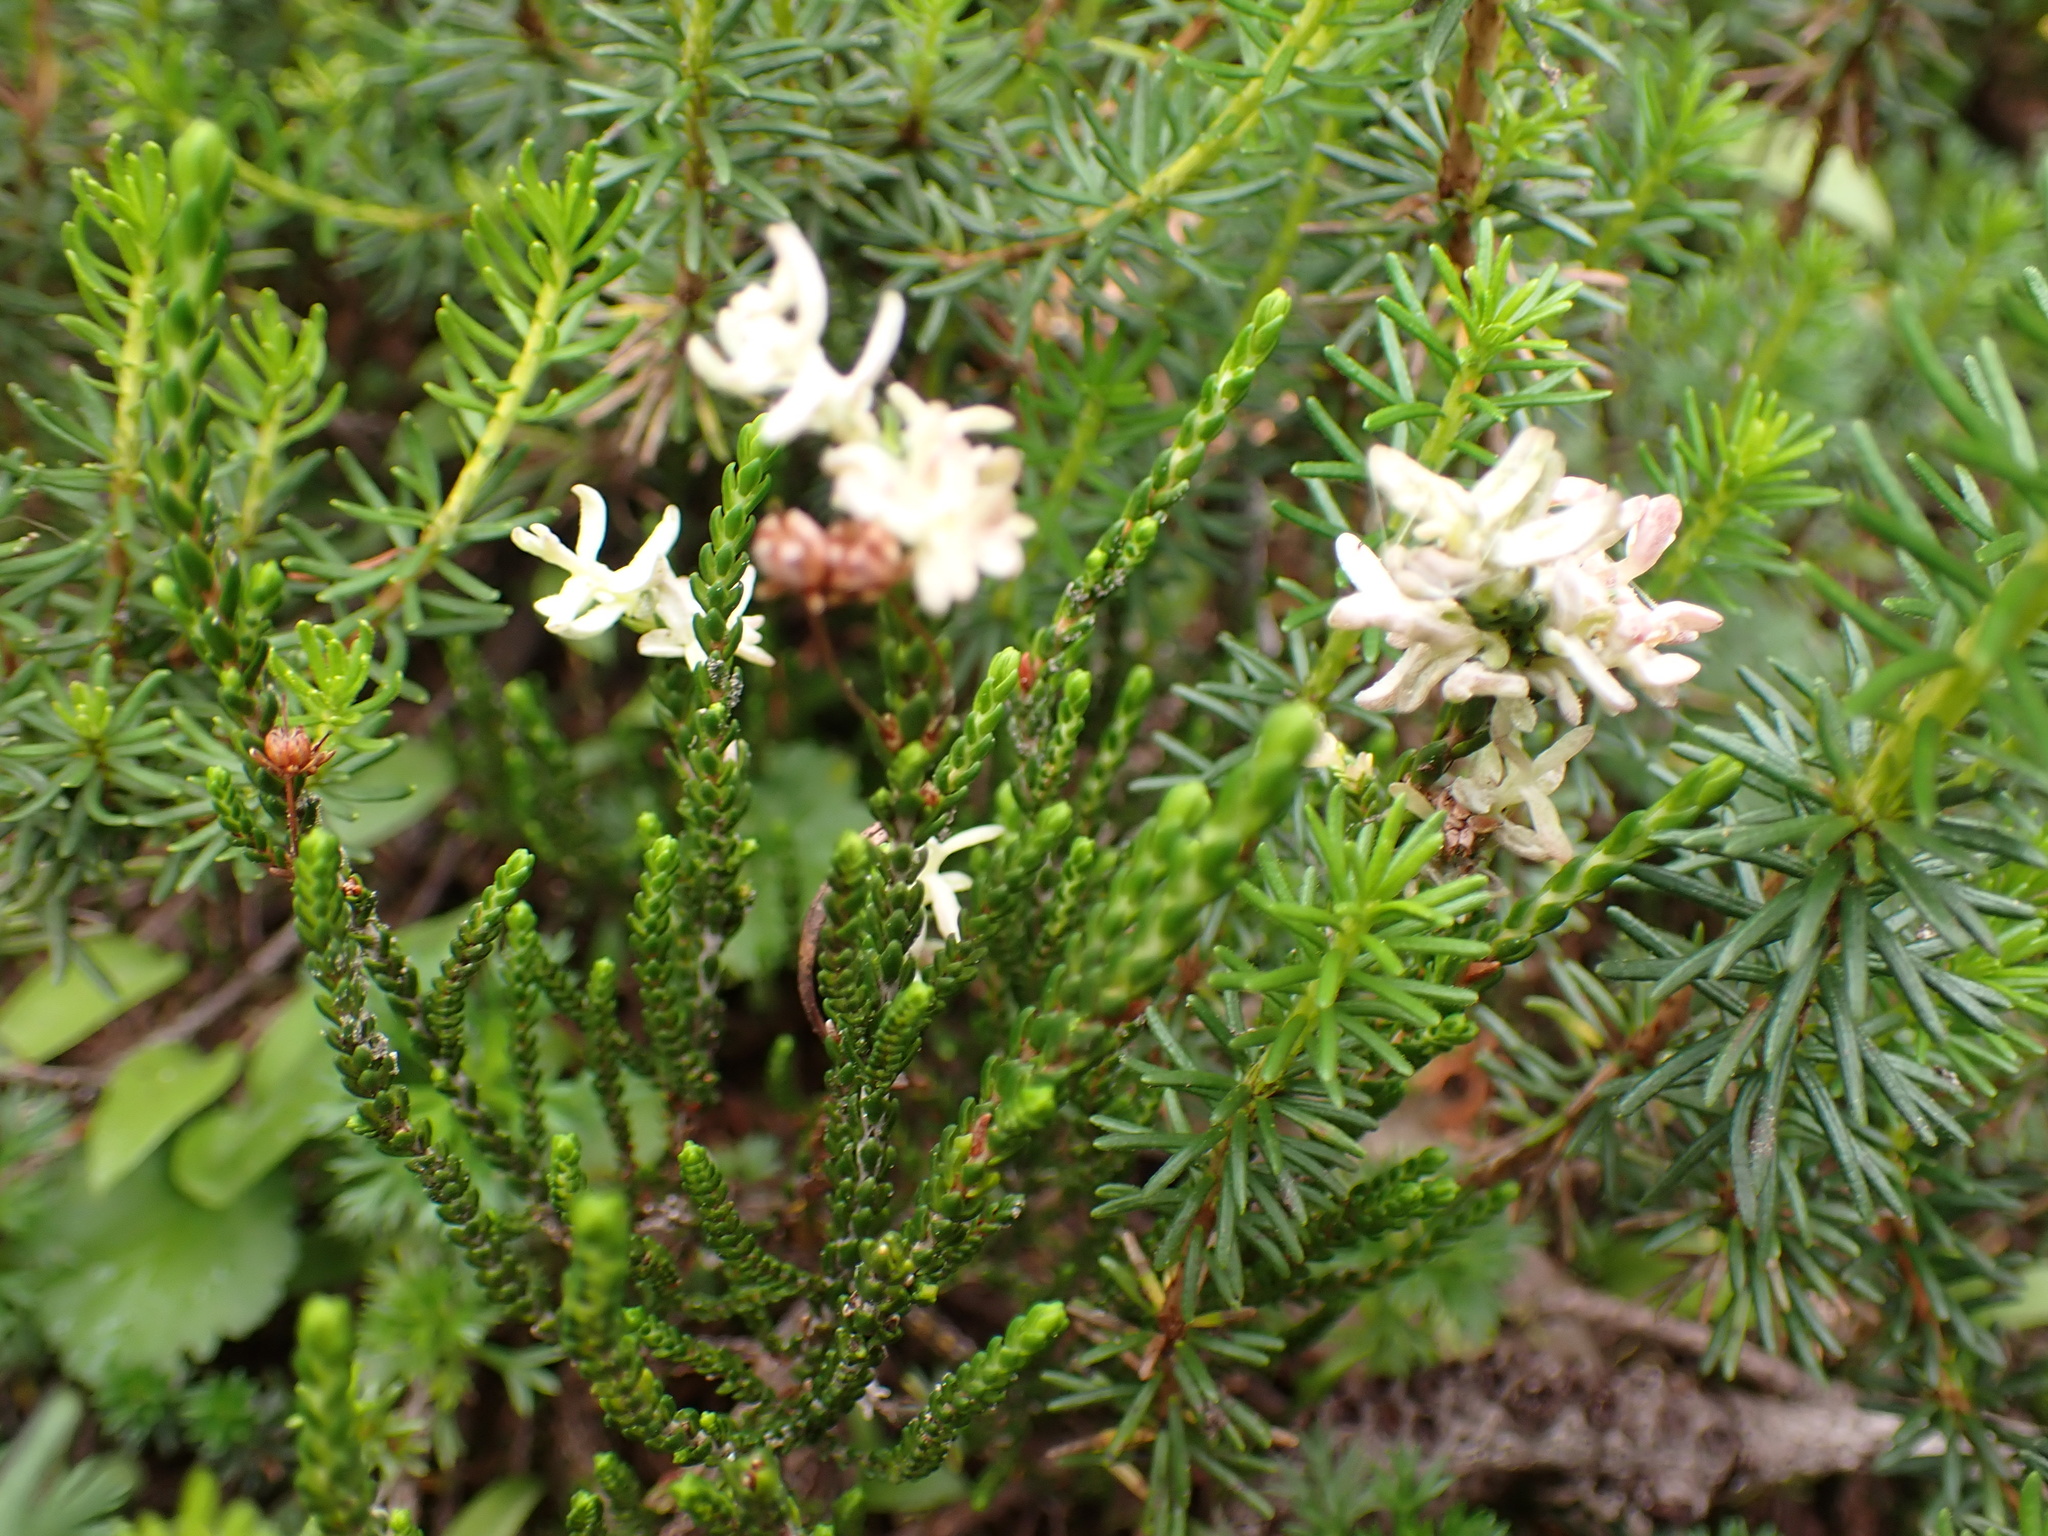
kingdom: Plantae
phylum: Tracheophyta
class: Magnoliopsida
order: Ericales
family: Ericaceae
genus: Cassiope
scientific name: Cassiope mertensiana
